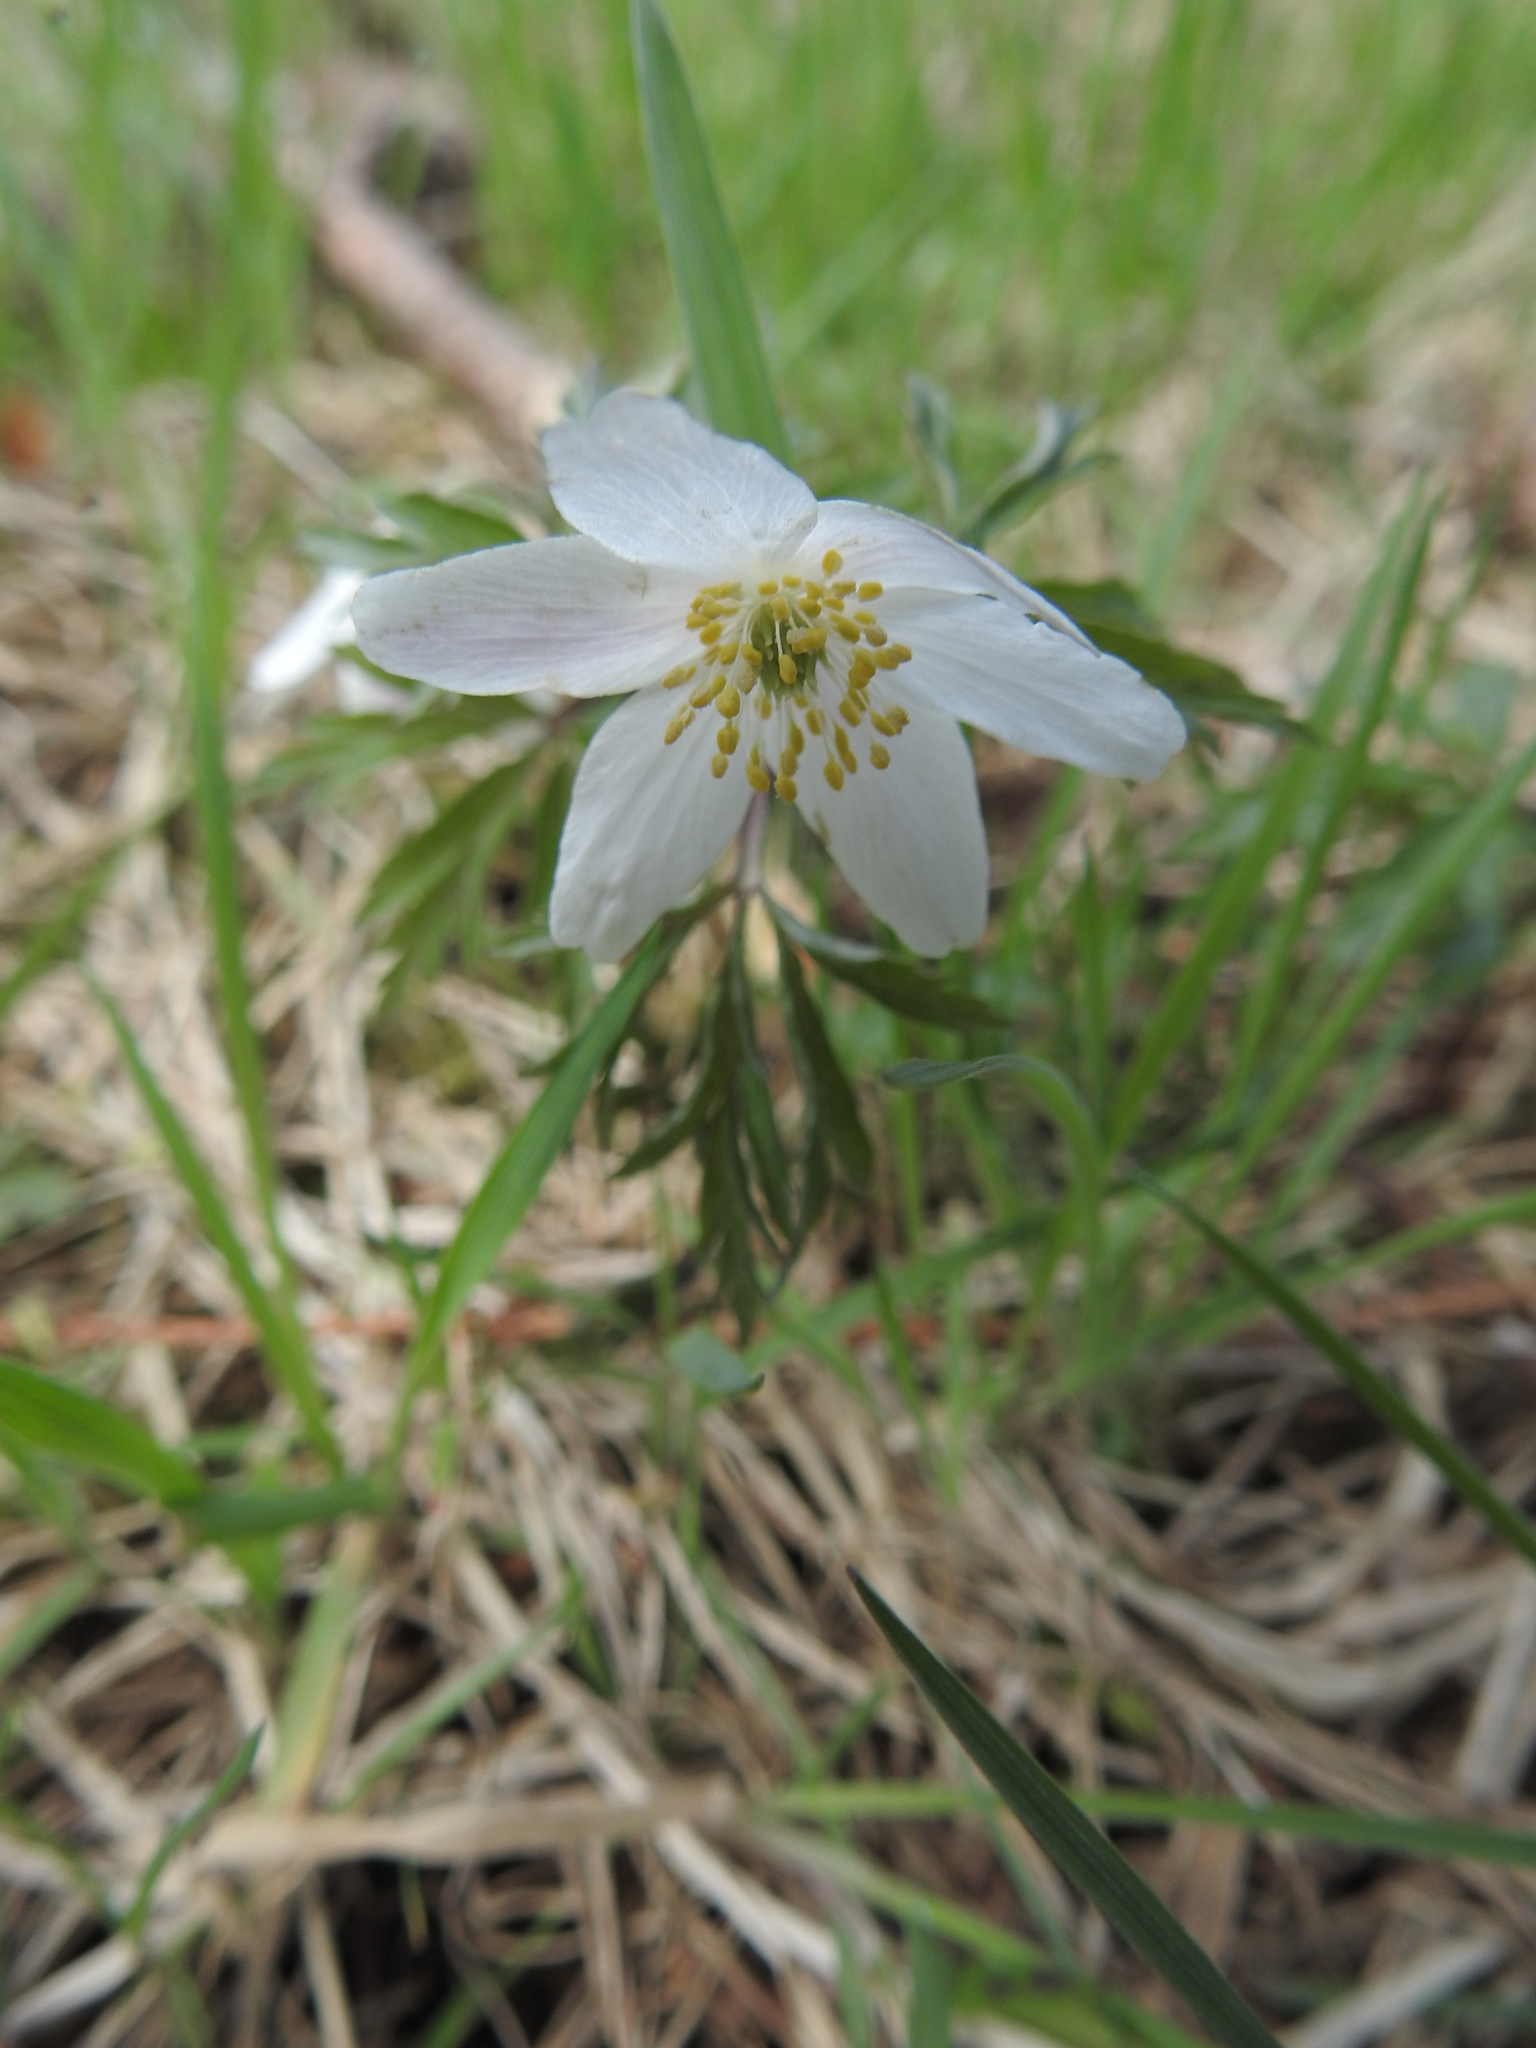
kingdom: Plantae
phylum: Tracheophyta
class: Magnoliopsida
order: Ranunculales
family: Ranunculaceae
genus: Anemone
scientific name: Anemone nemorosa
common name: Wood anemone
